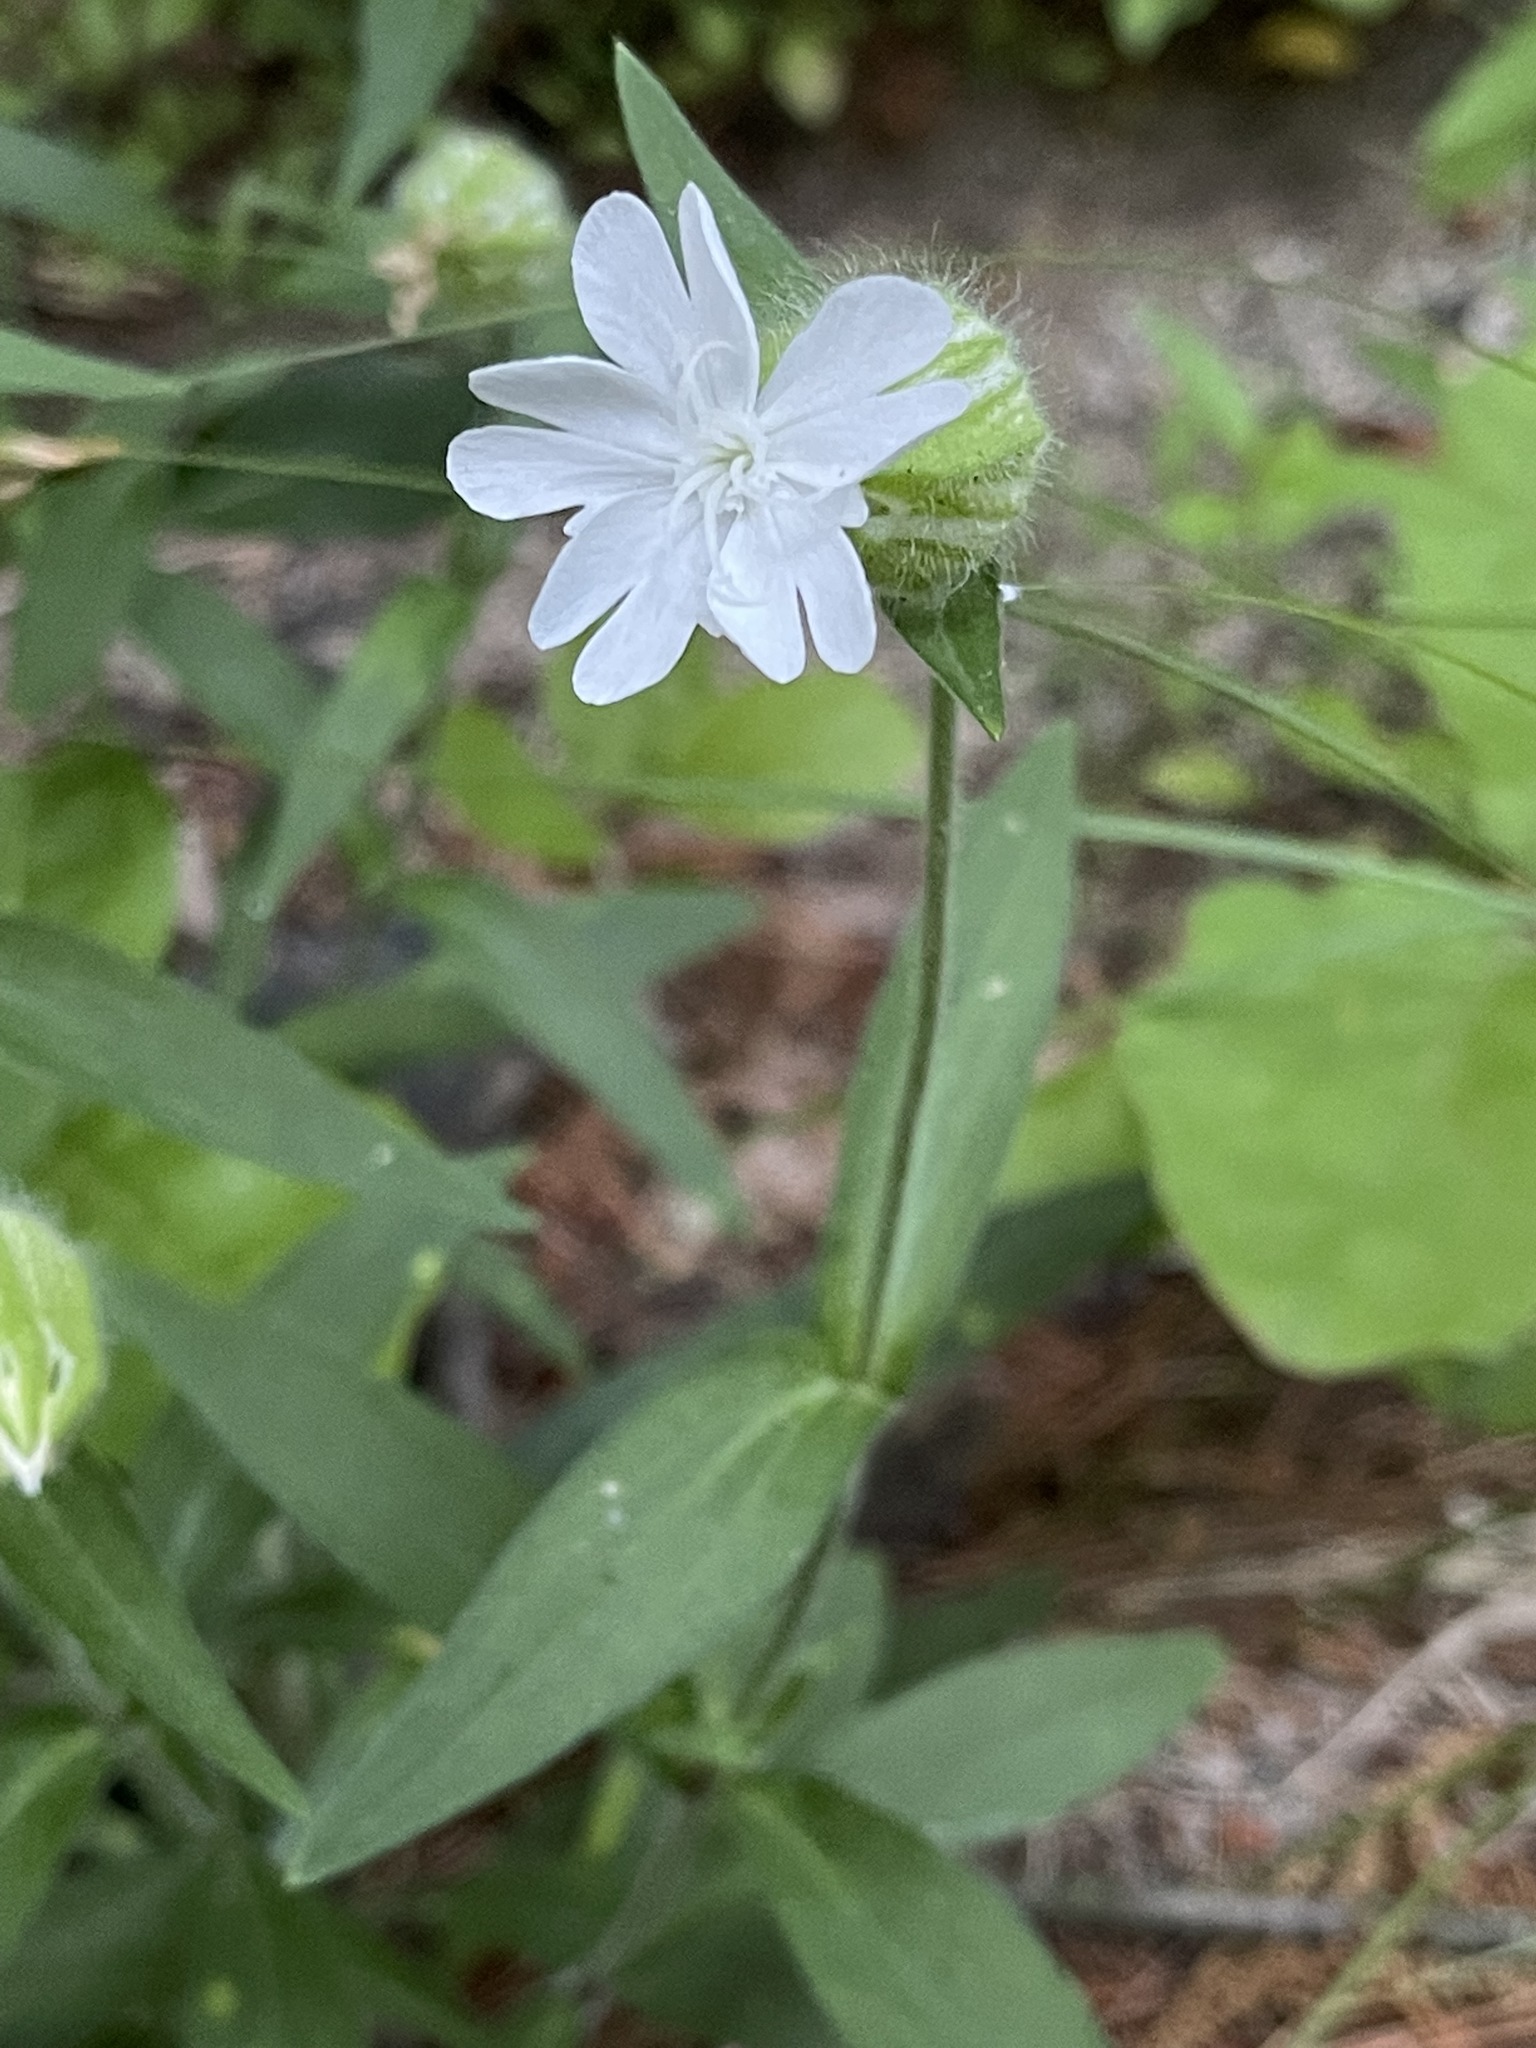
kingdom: Plantae
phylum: Tracheophyta
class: Magnoliopsida
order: Caryophyllales
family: Caryophyllaceae
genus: Silene
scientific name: Silene latifolia
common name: White campion
